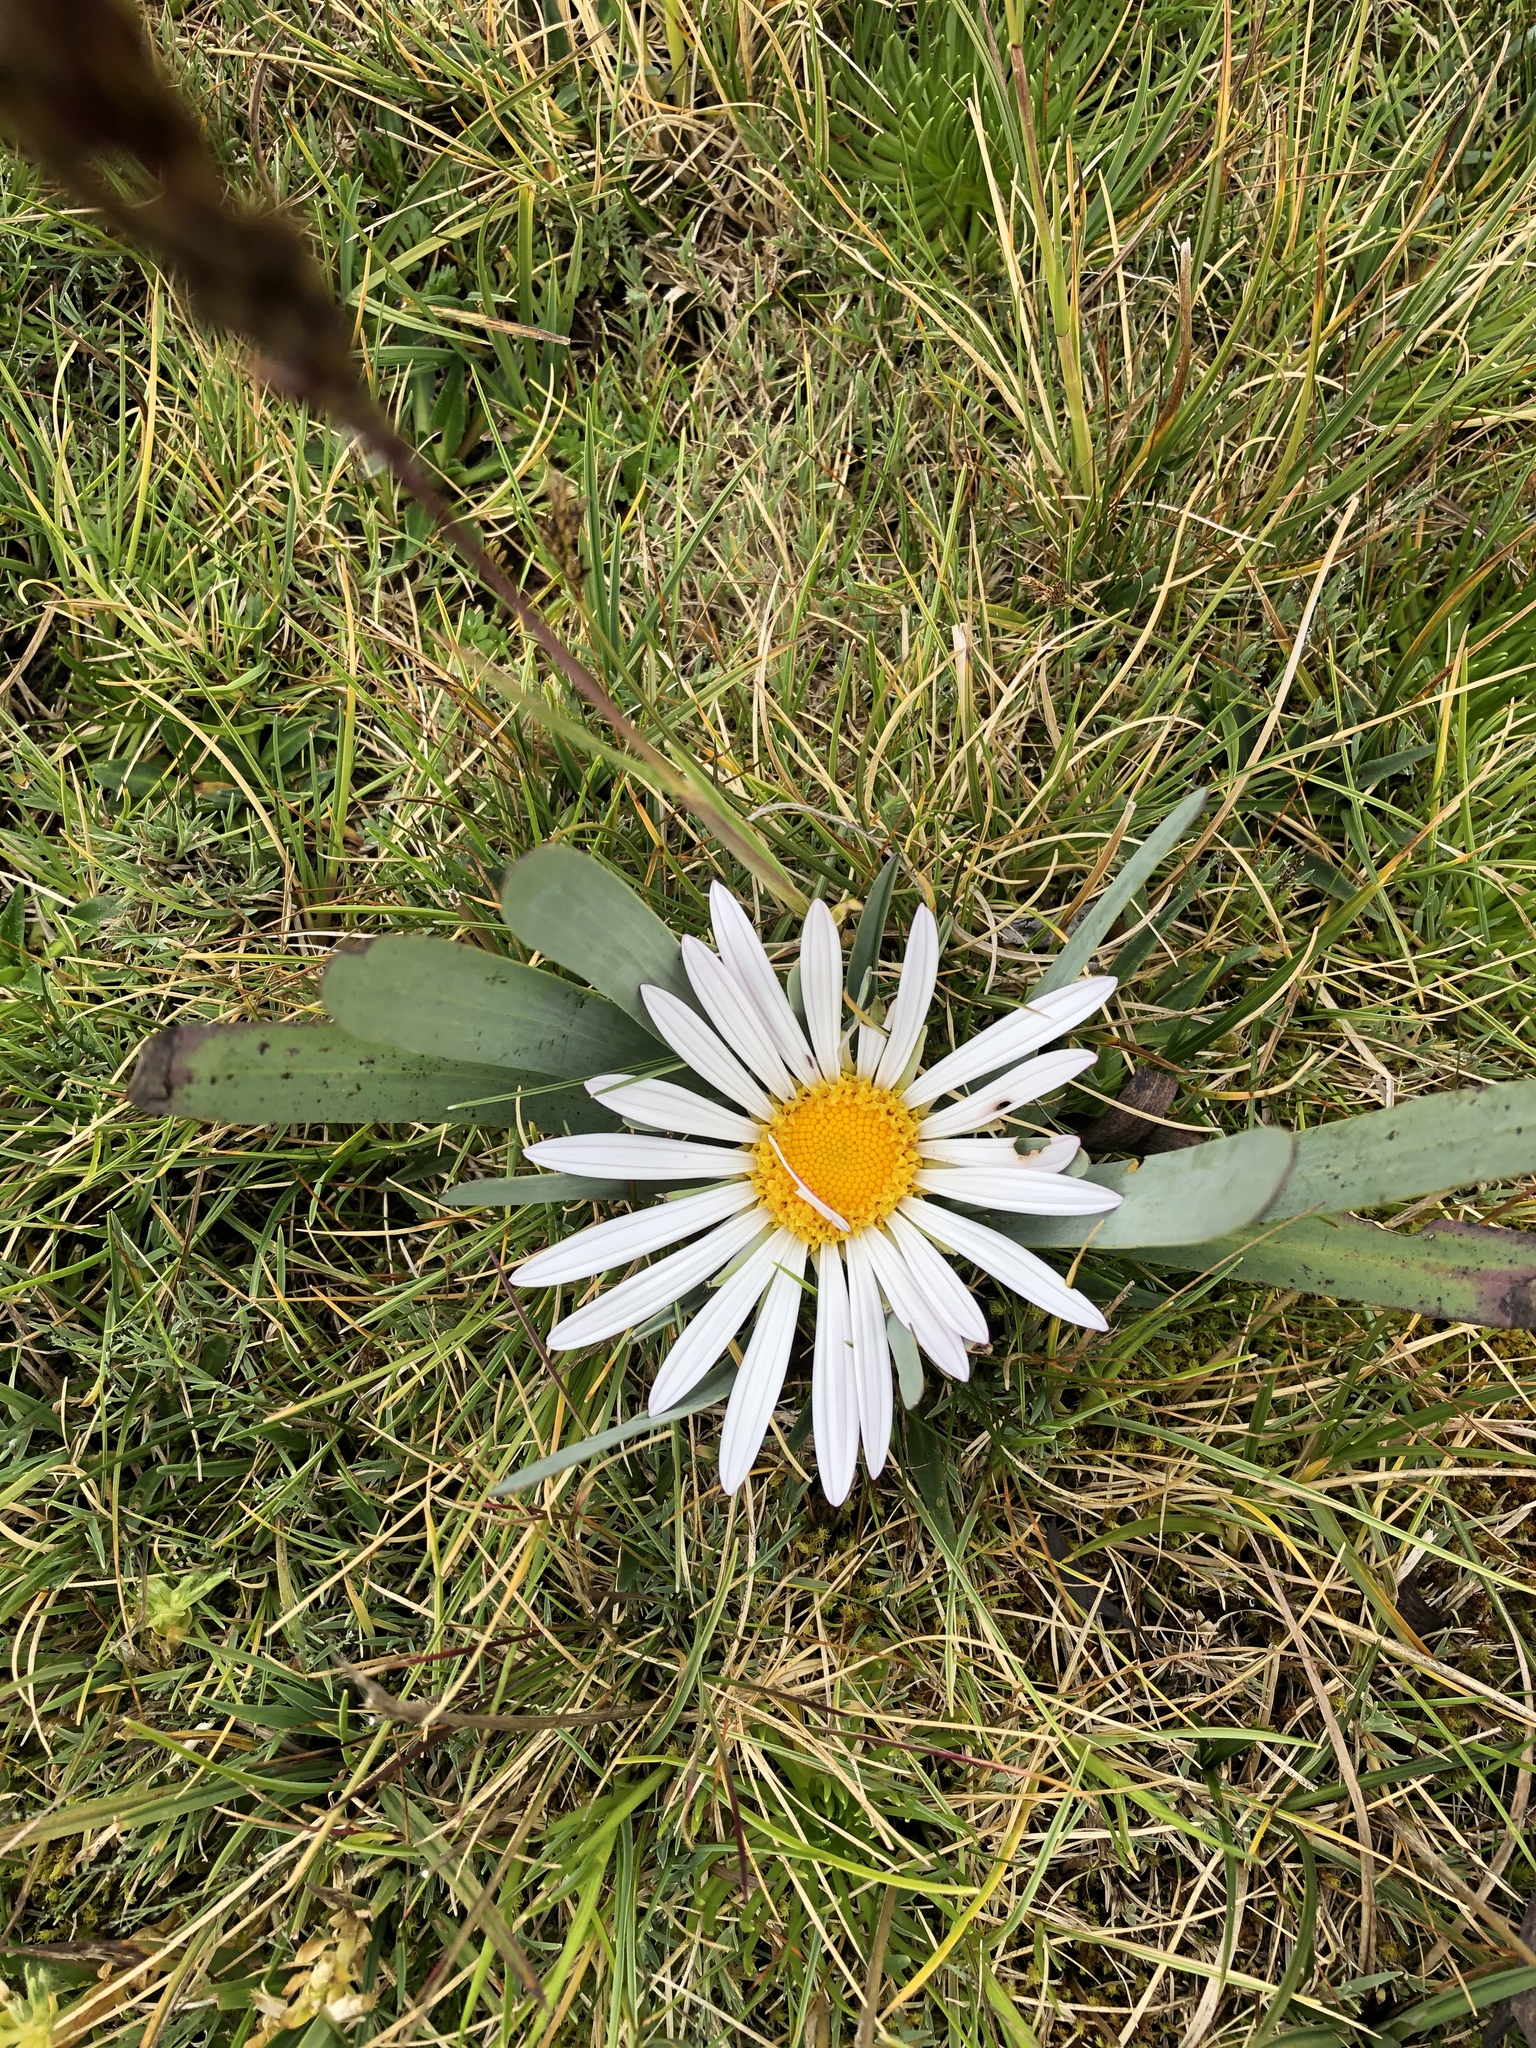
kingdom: Plantae
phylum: Tracheophyta
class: Magnoliopsida
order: Asterales
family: Asteraceae
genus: Rockhausenia
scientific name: Rockhausenia nubigena
